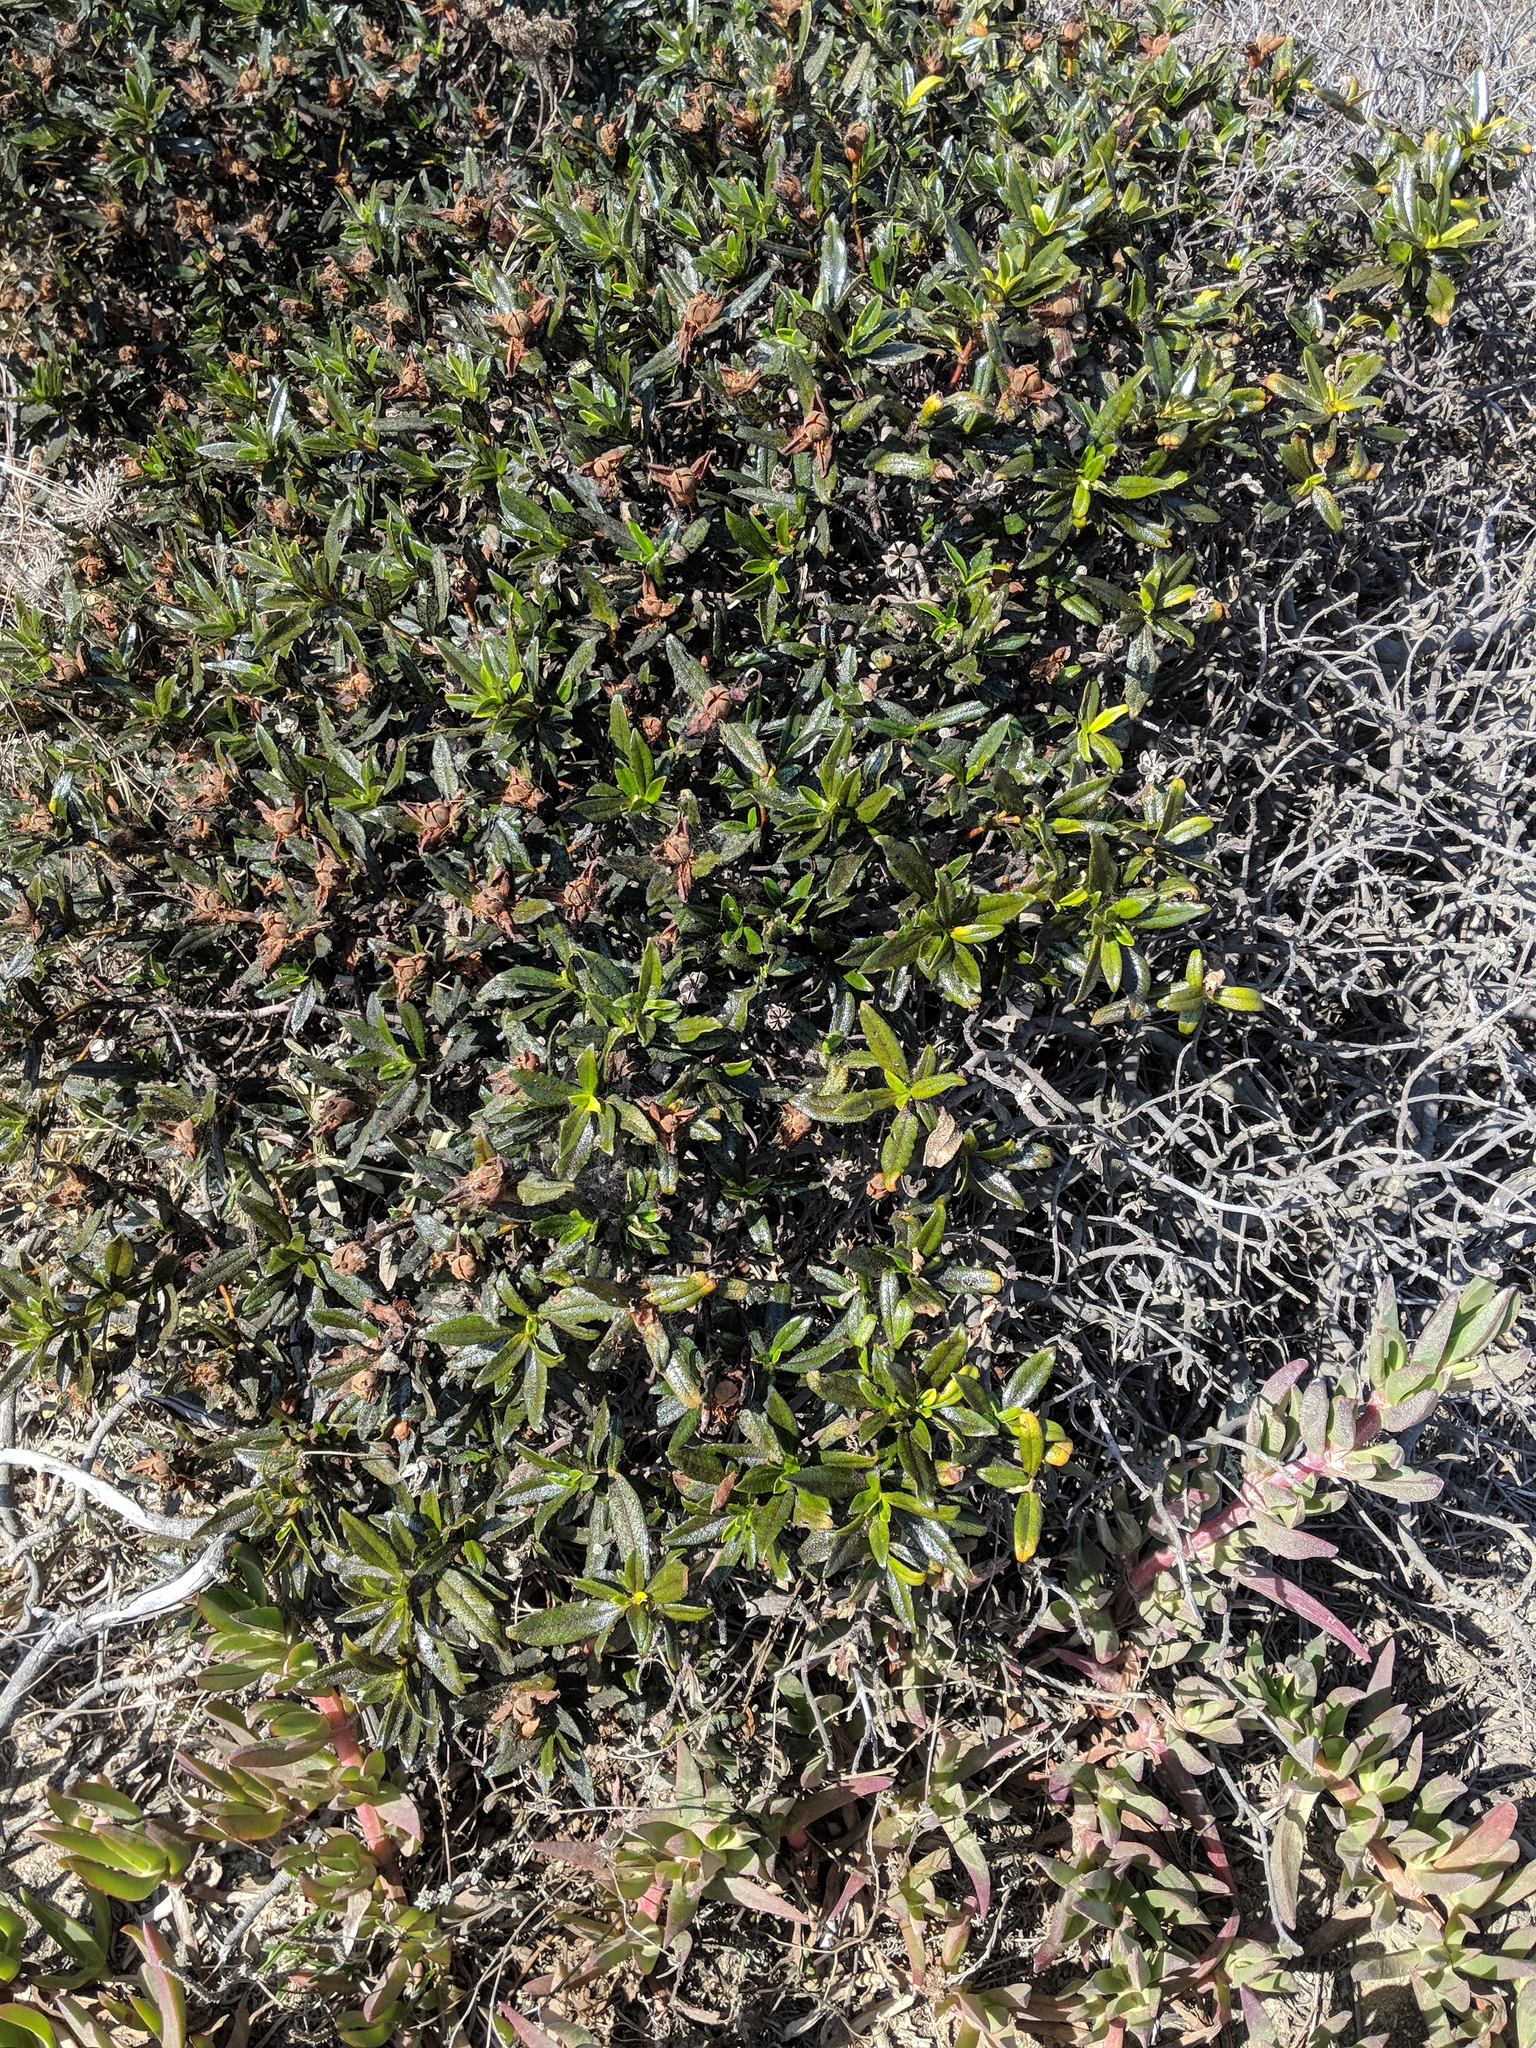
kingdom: Plantae
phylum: Tracheophyta
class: Magnoliopsida
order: Malvales
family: Cistaceae
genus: Cistus
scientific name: Cistus ladanifer
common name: Common gum cistus
